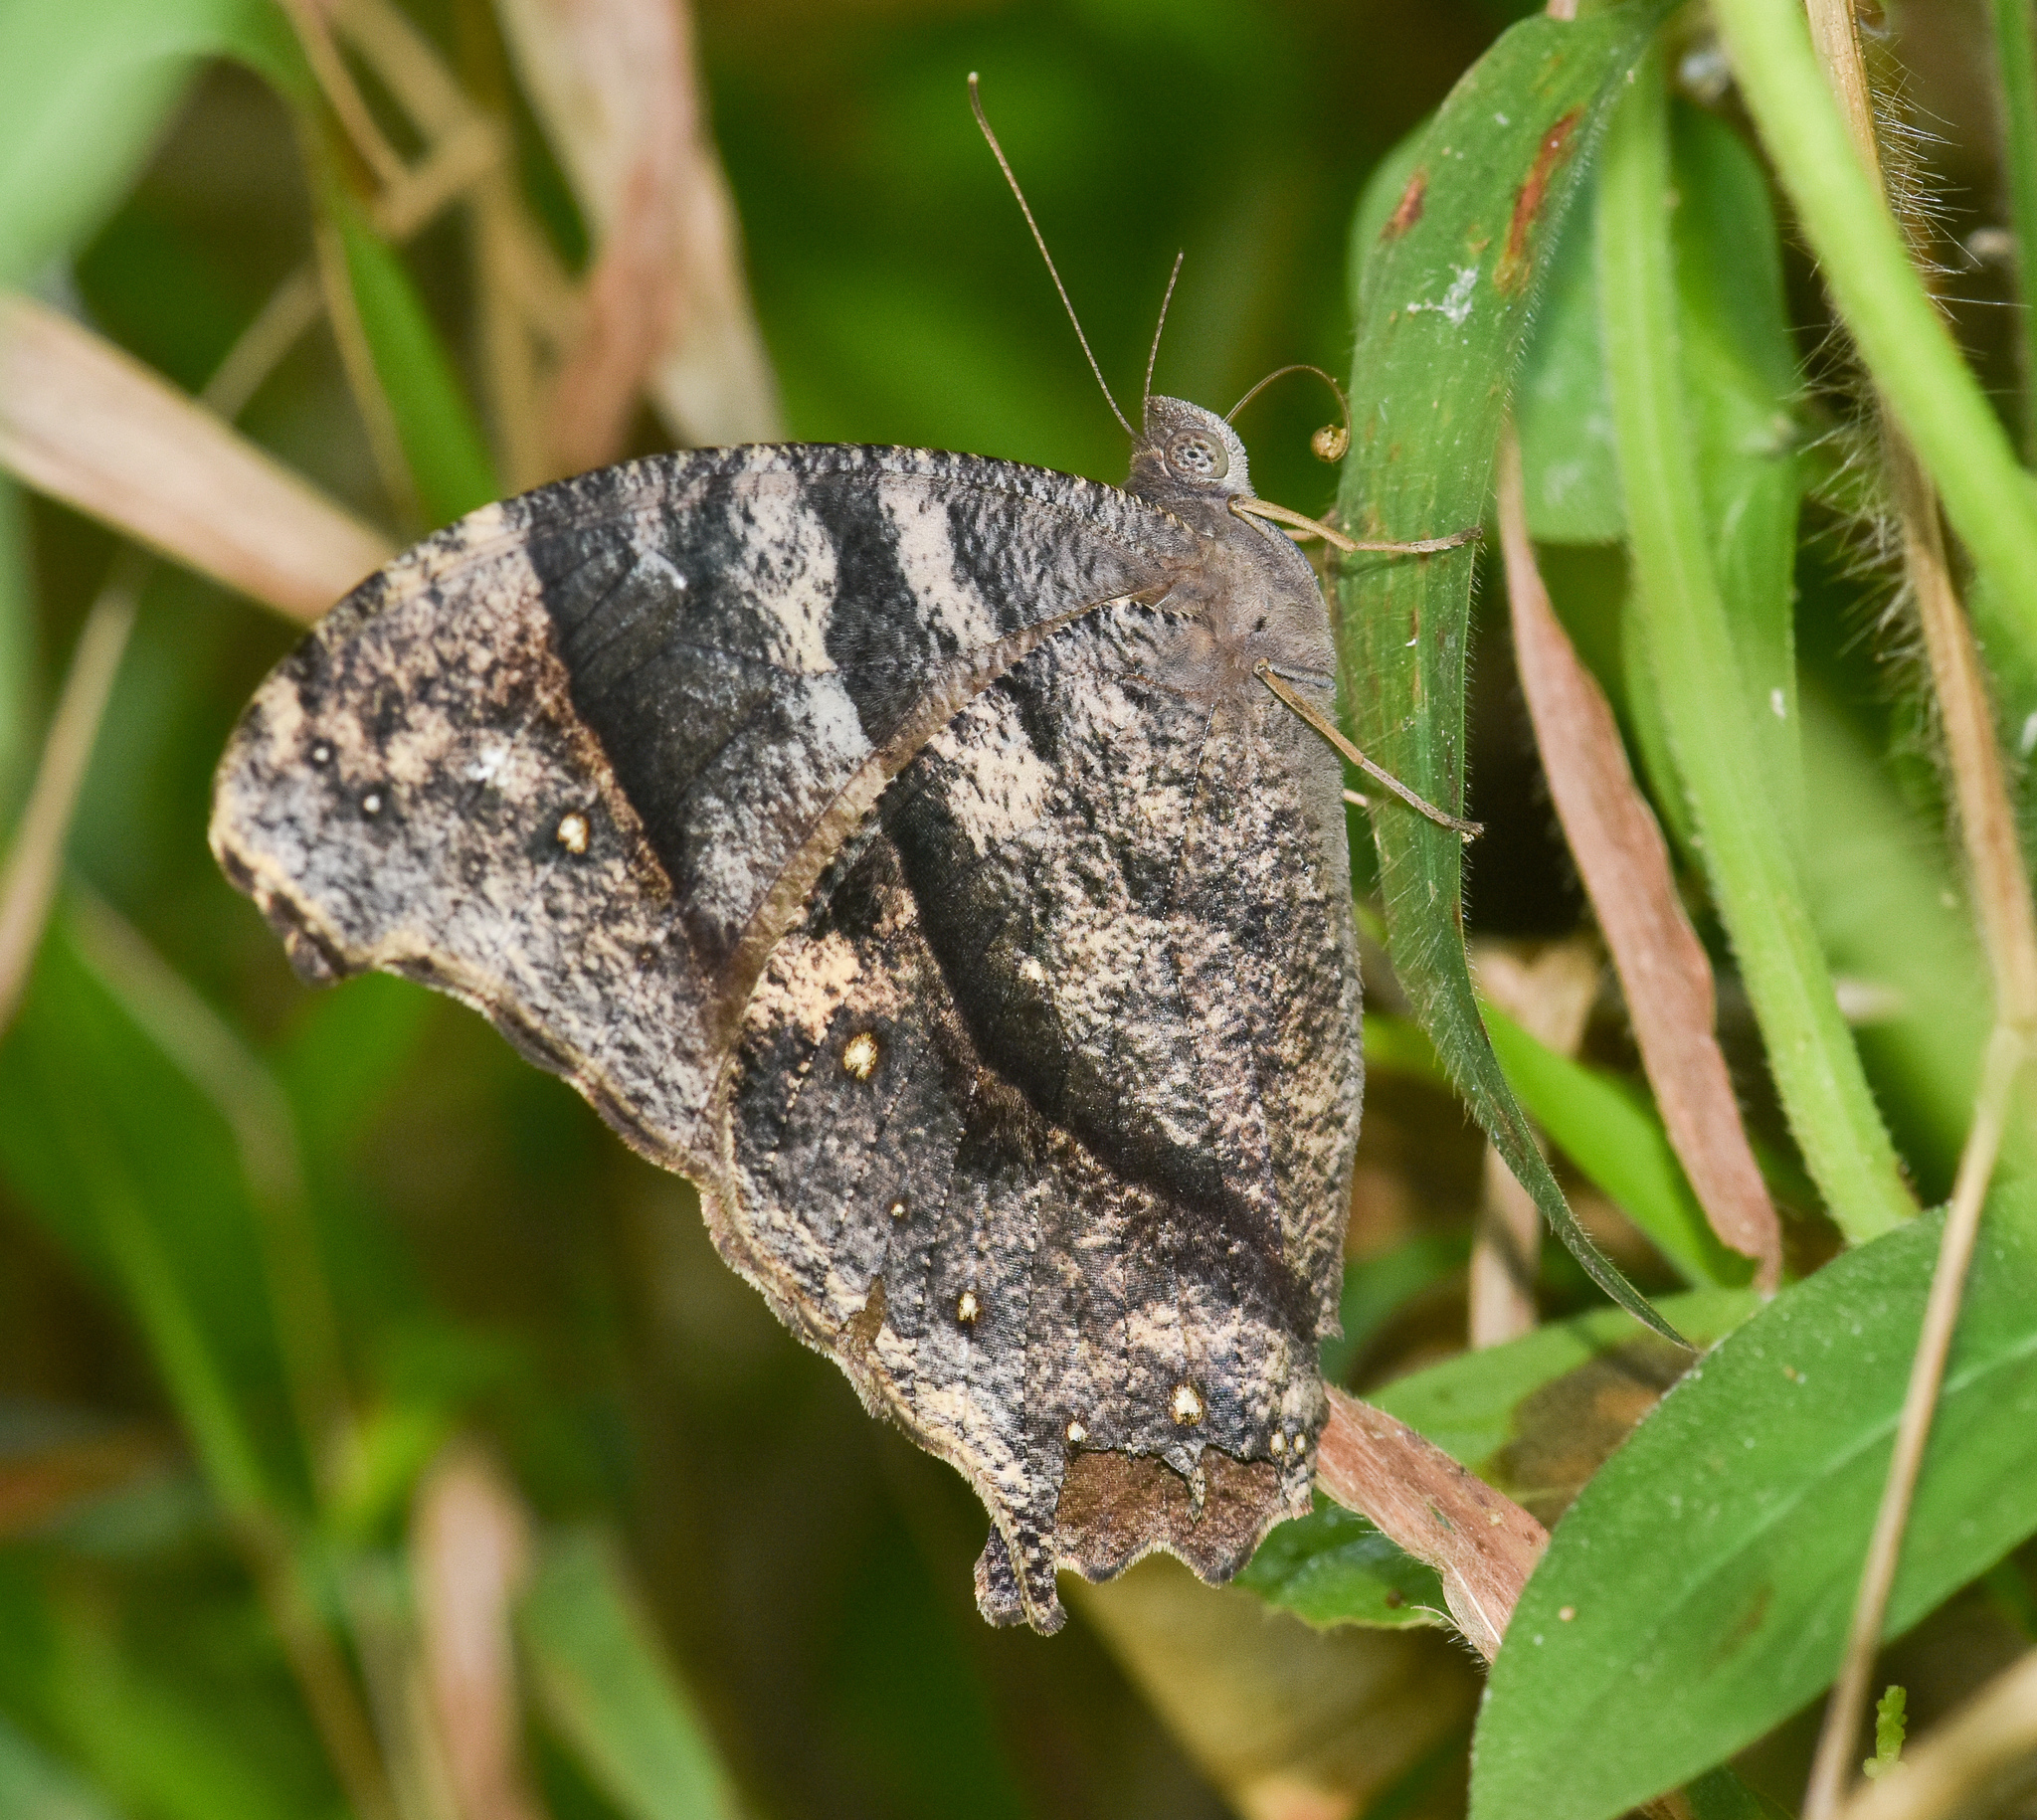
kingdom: Animalia
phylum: Arthropoda
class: Insecta
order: Lepidoptera
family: Nymphalidae
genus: Melanitis
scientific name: Melanitis leda
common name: Twilight brown
